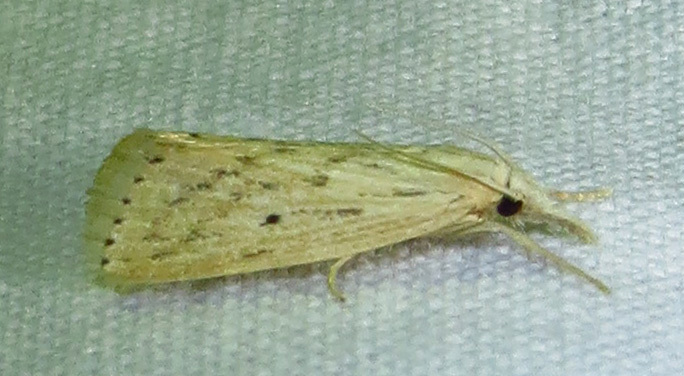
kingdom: Animalia
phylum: Arthropoda
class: Insecta
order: Lepidoptera
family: Crambidae
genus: Diatraea
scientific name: Diatraea lisetta
